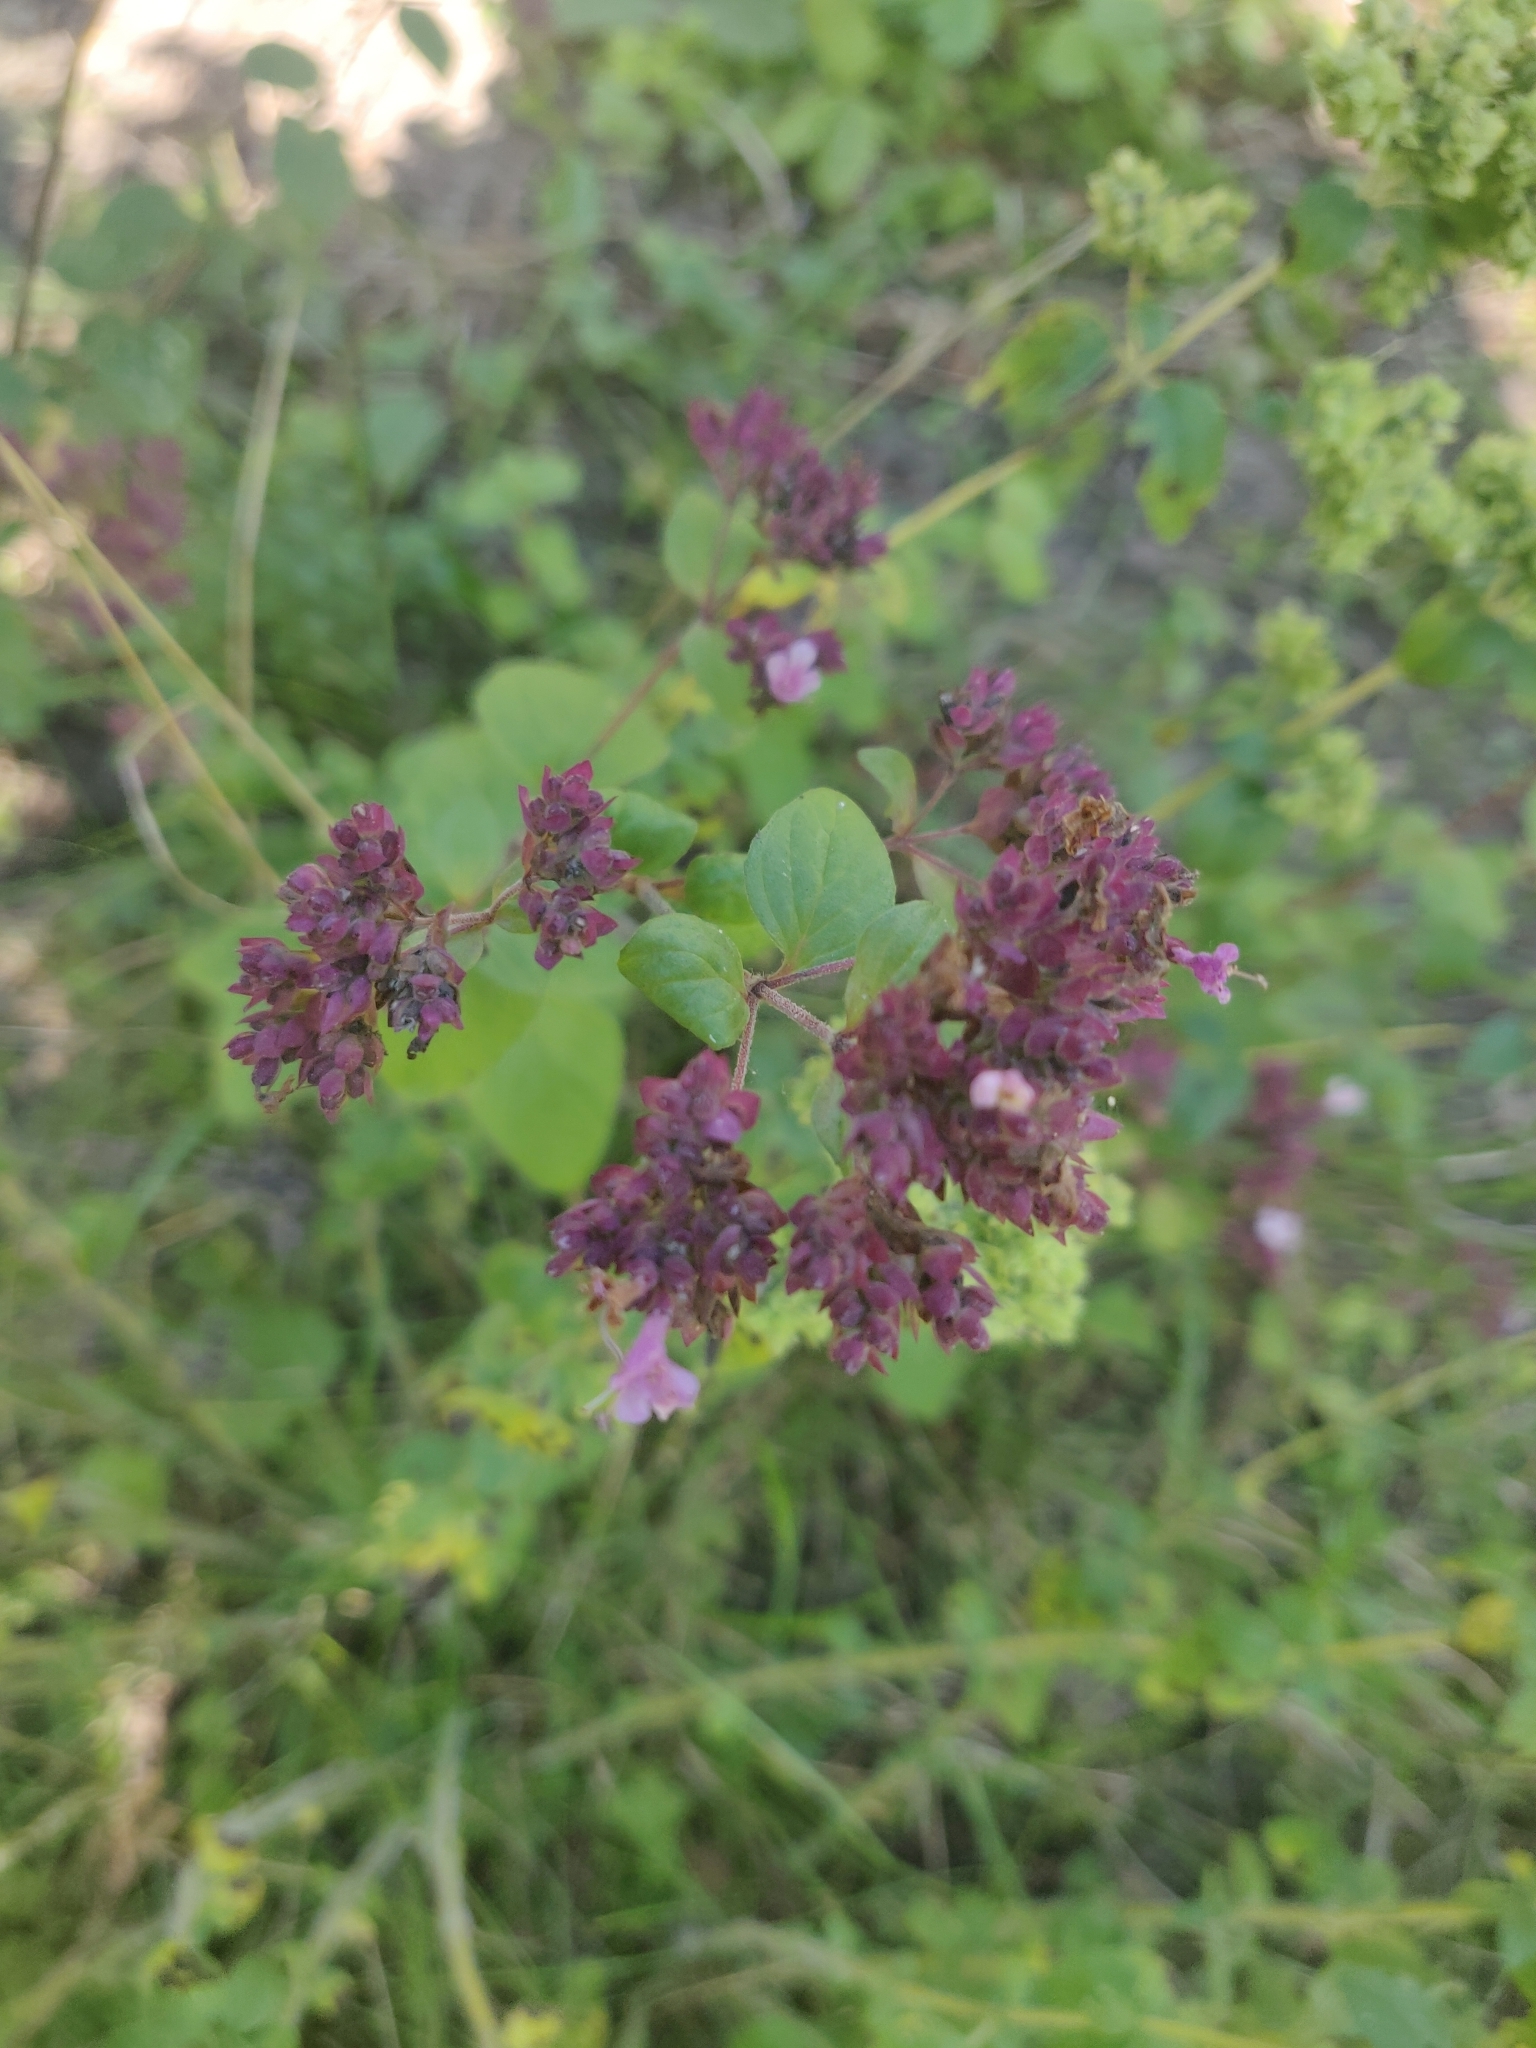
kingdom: Plantae
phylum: Tracheophyta
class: Magnoliopsida
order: Lamiales
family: Lamiaceae
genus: Origanum
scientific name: Origanum vulgare
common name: Wild marjoram
